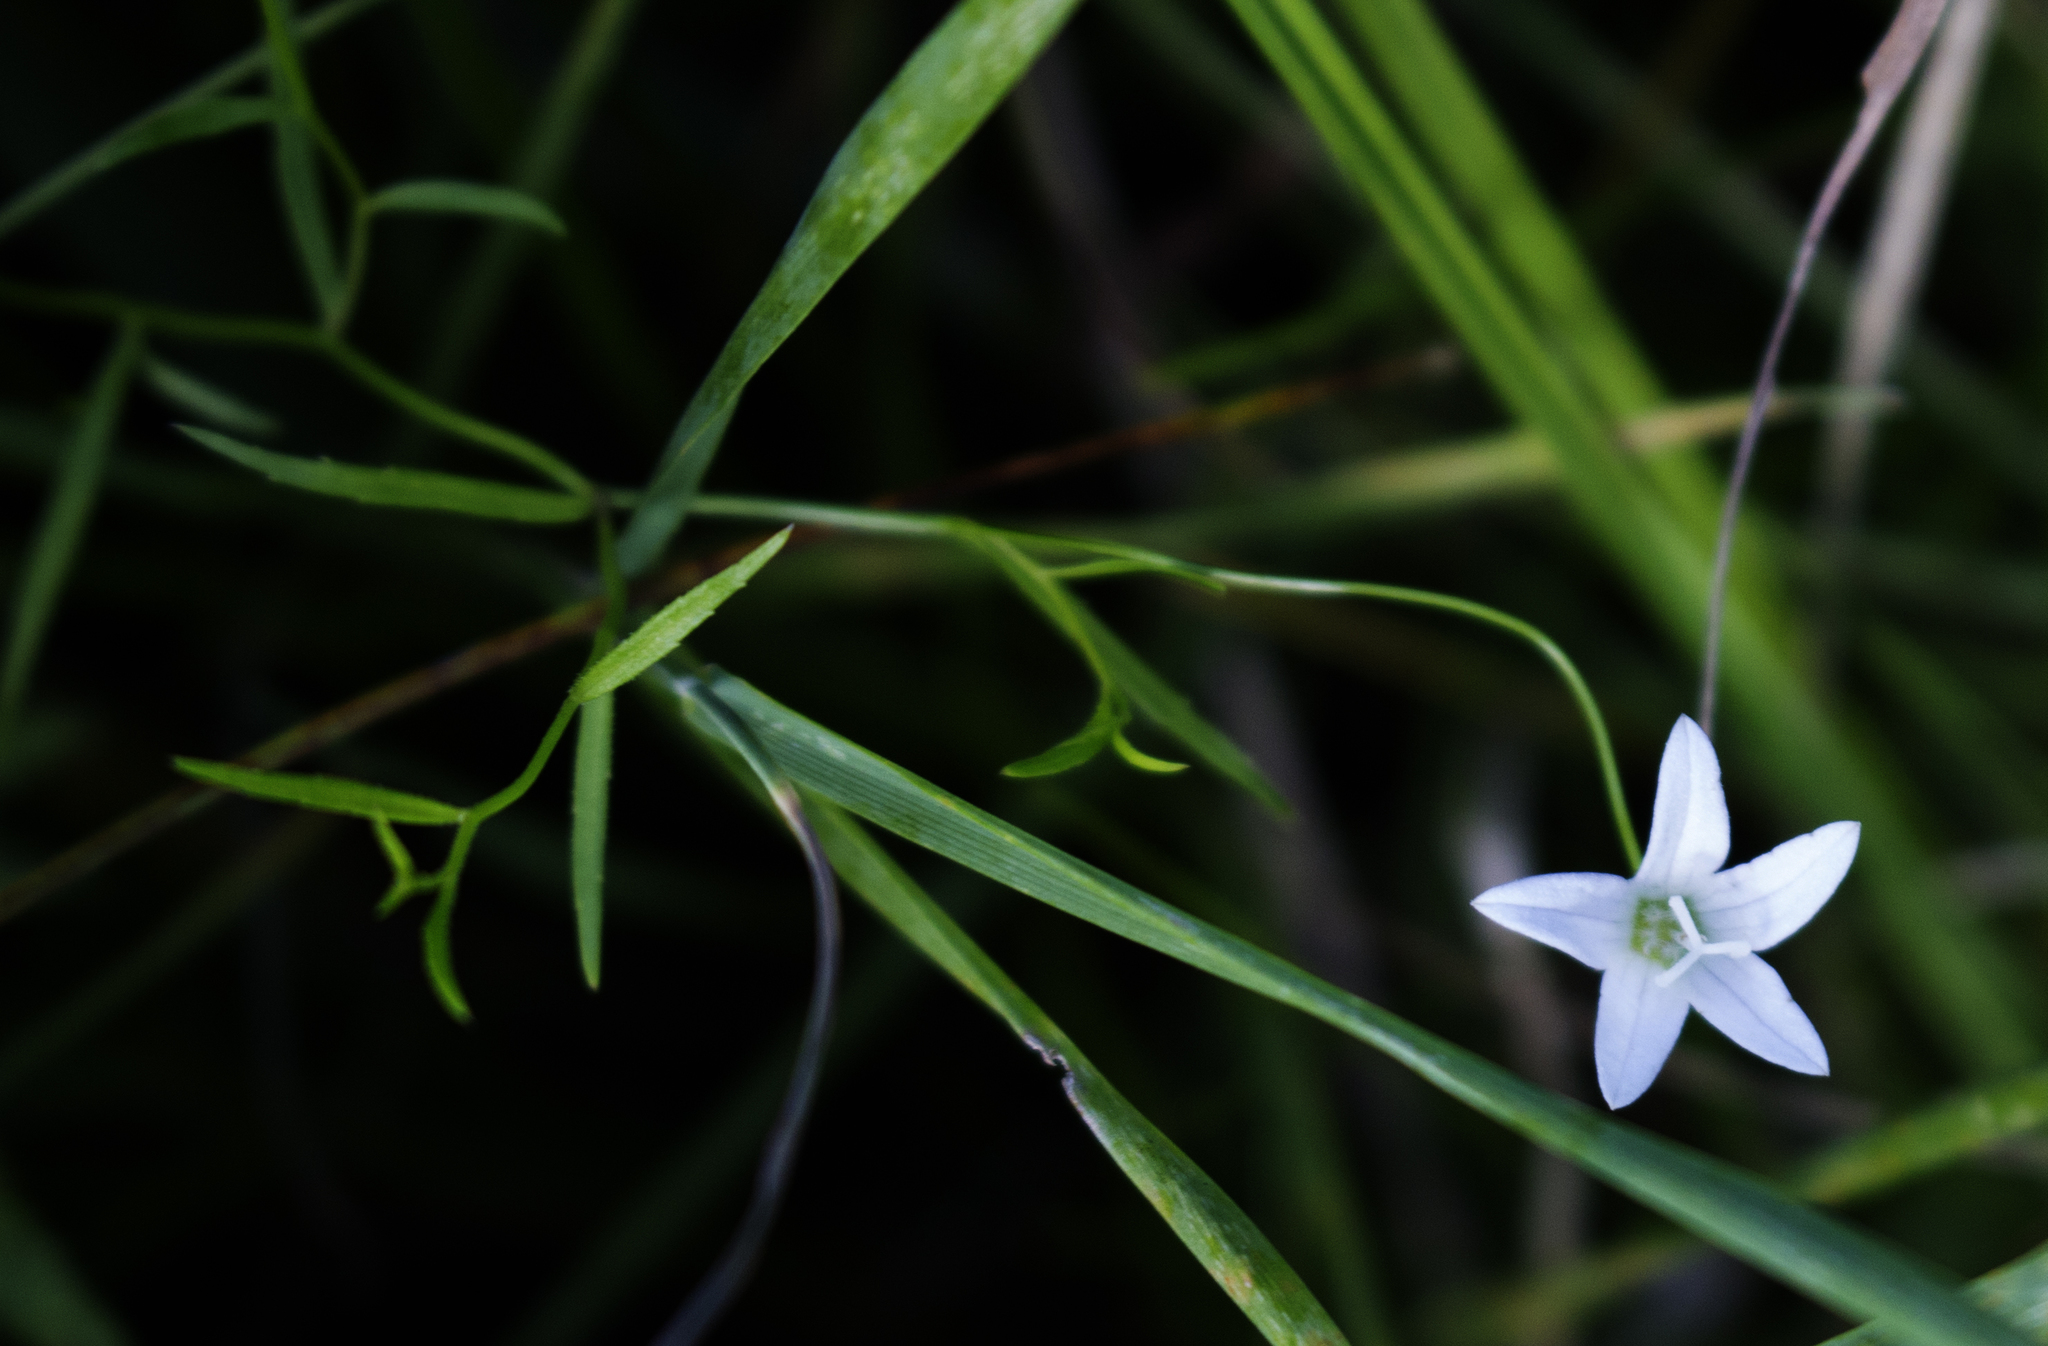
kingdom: Plantae
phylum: Tracheophyta
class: Magnoliopsida
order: Asterales
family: Campanulaceae
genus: Palustricodon
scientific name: Palustricodon aparinoides
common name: Bedstraw bellflower
